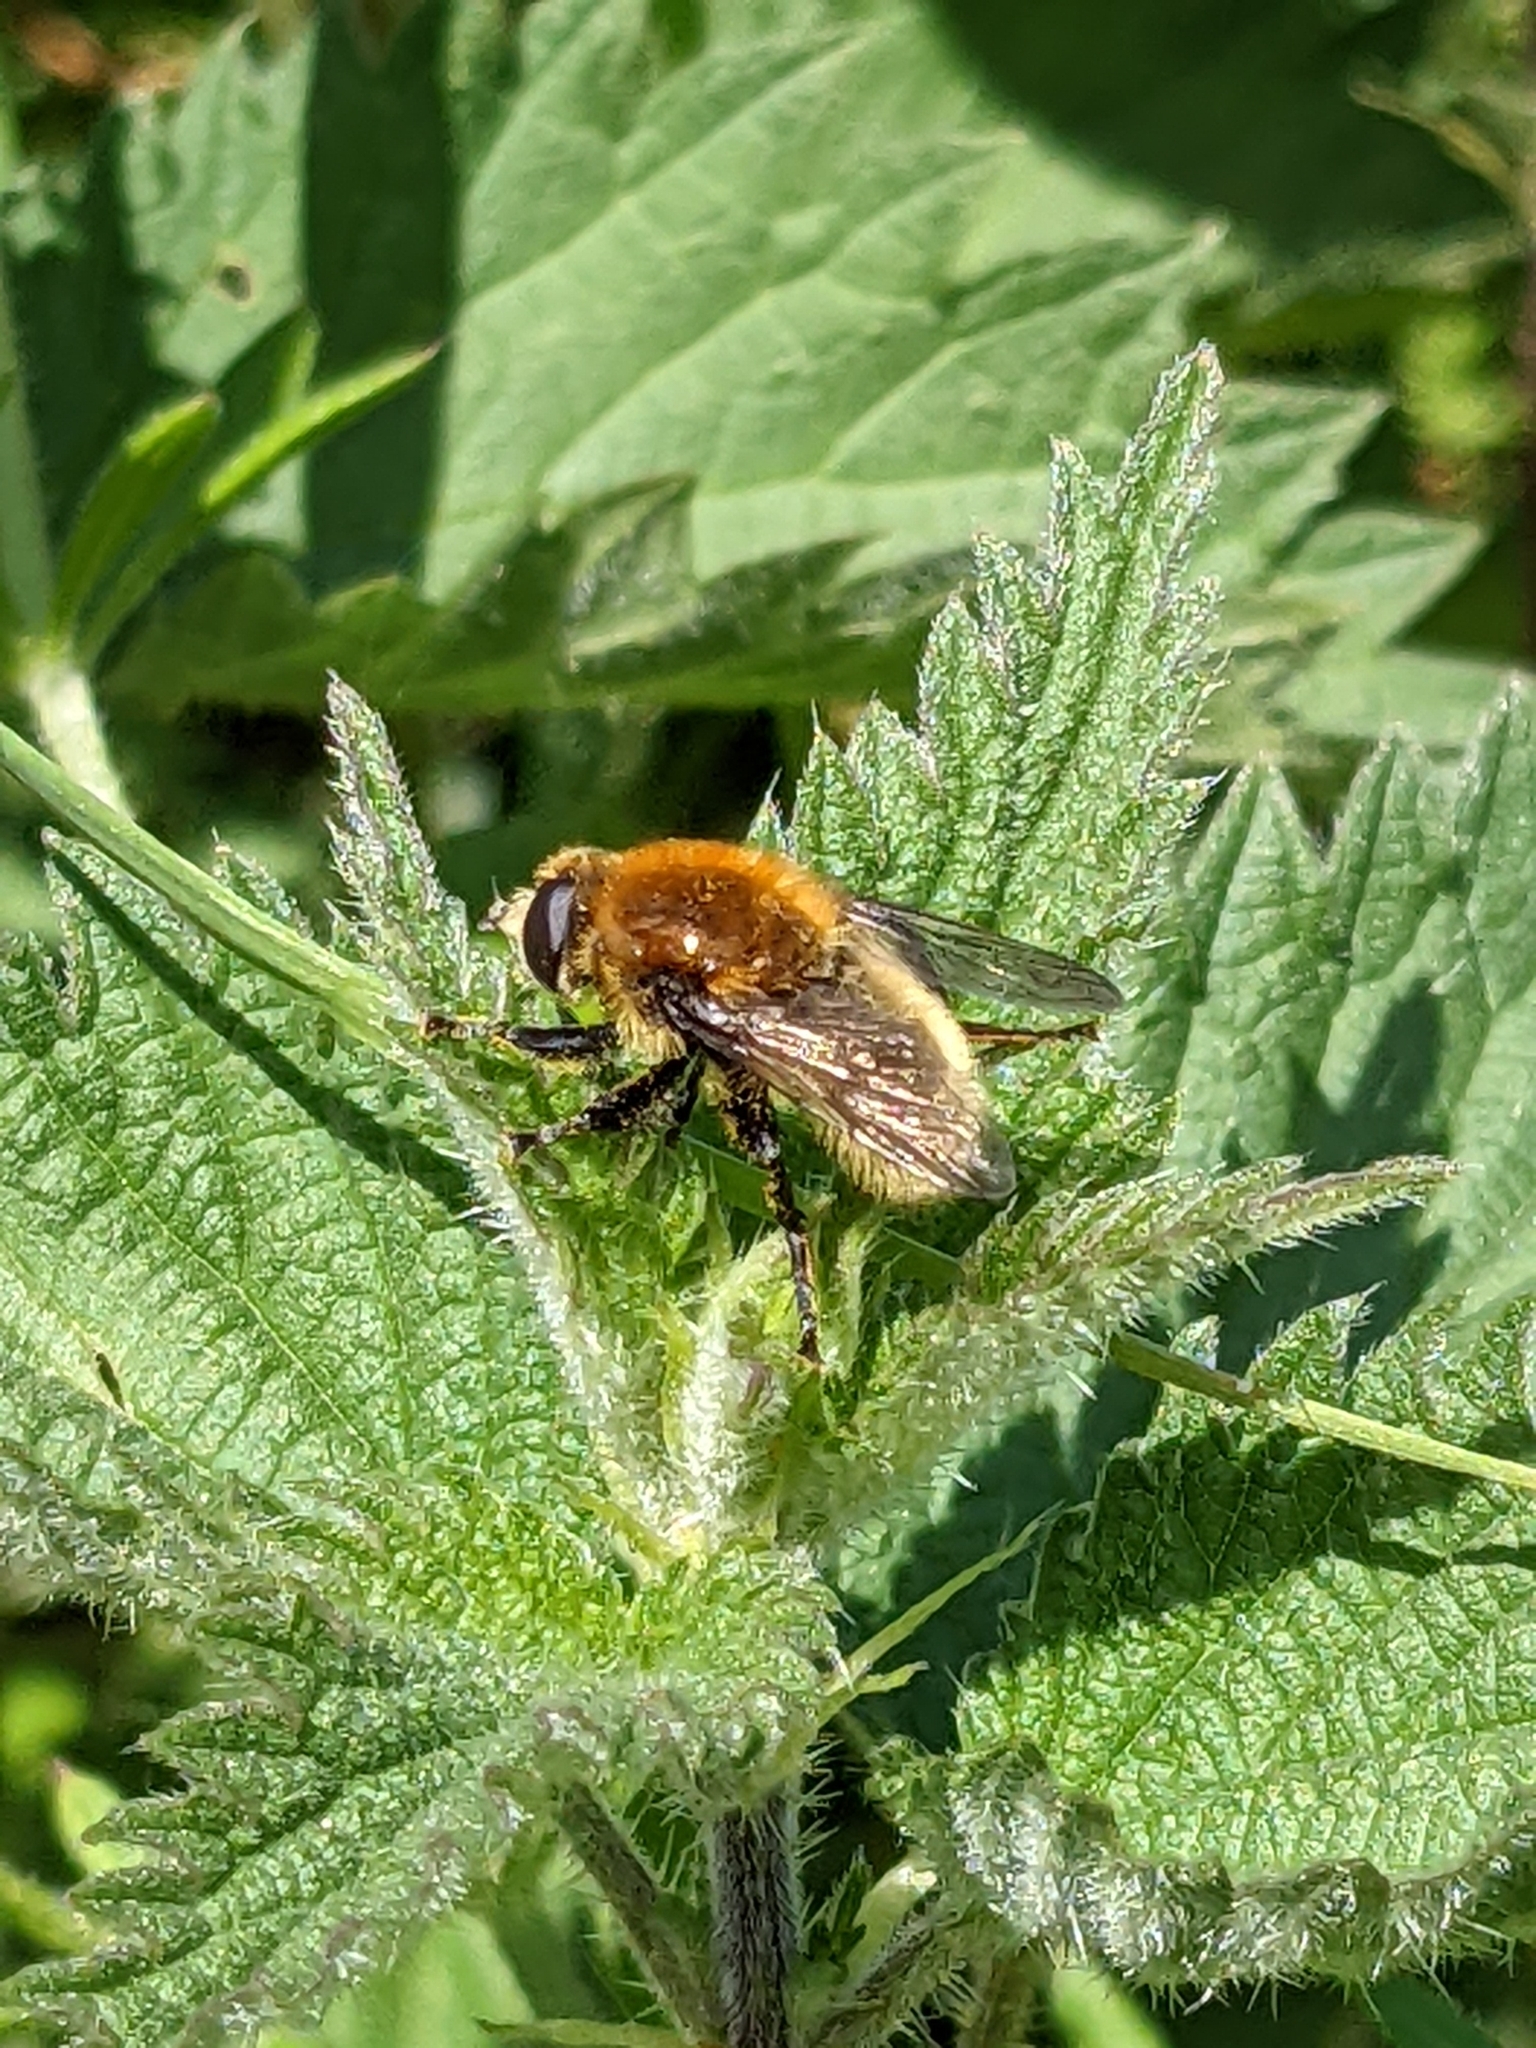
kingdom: Animalia
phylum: Arthropoda
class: Insecta
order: Diptera
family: Syrphidae
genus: Merodon
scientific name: Merodon equestris
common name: Greater bulb-fly
